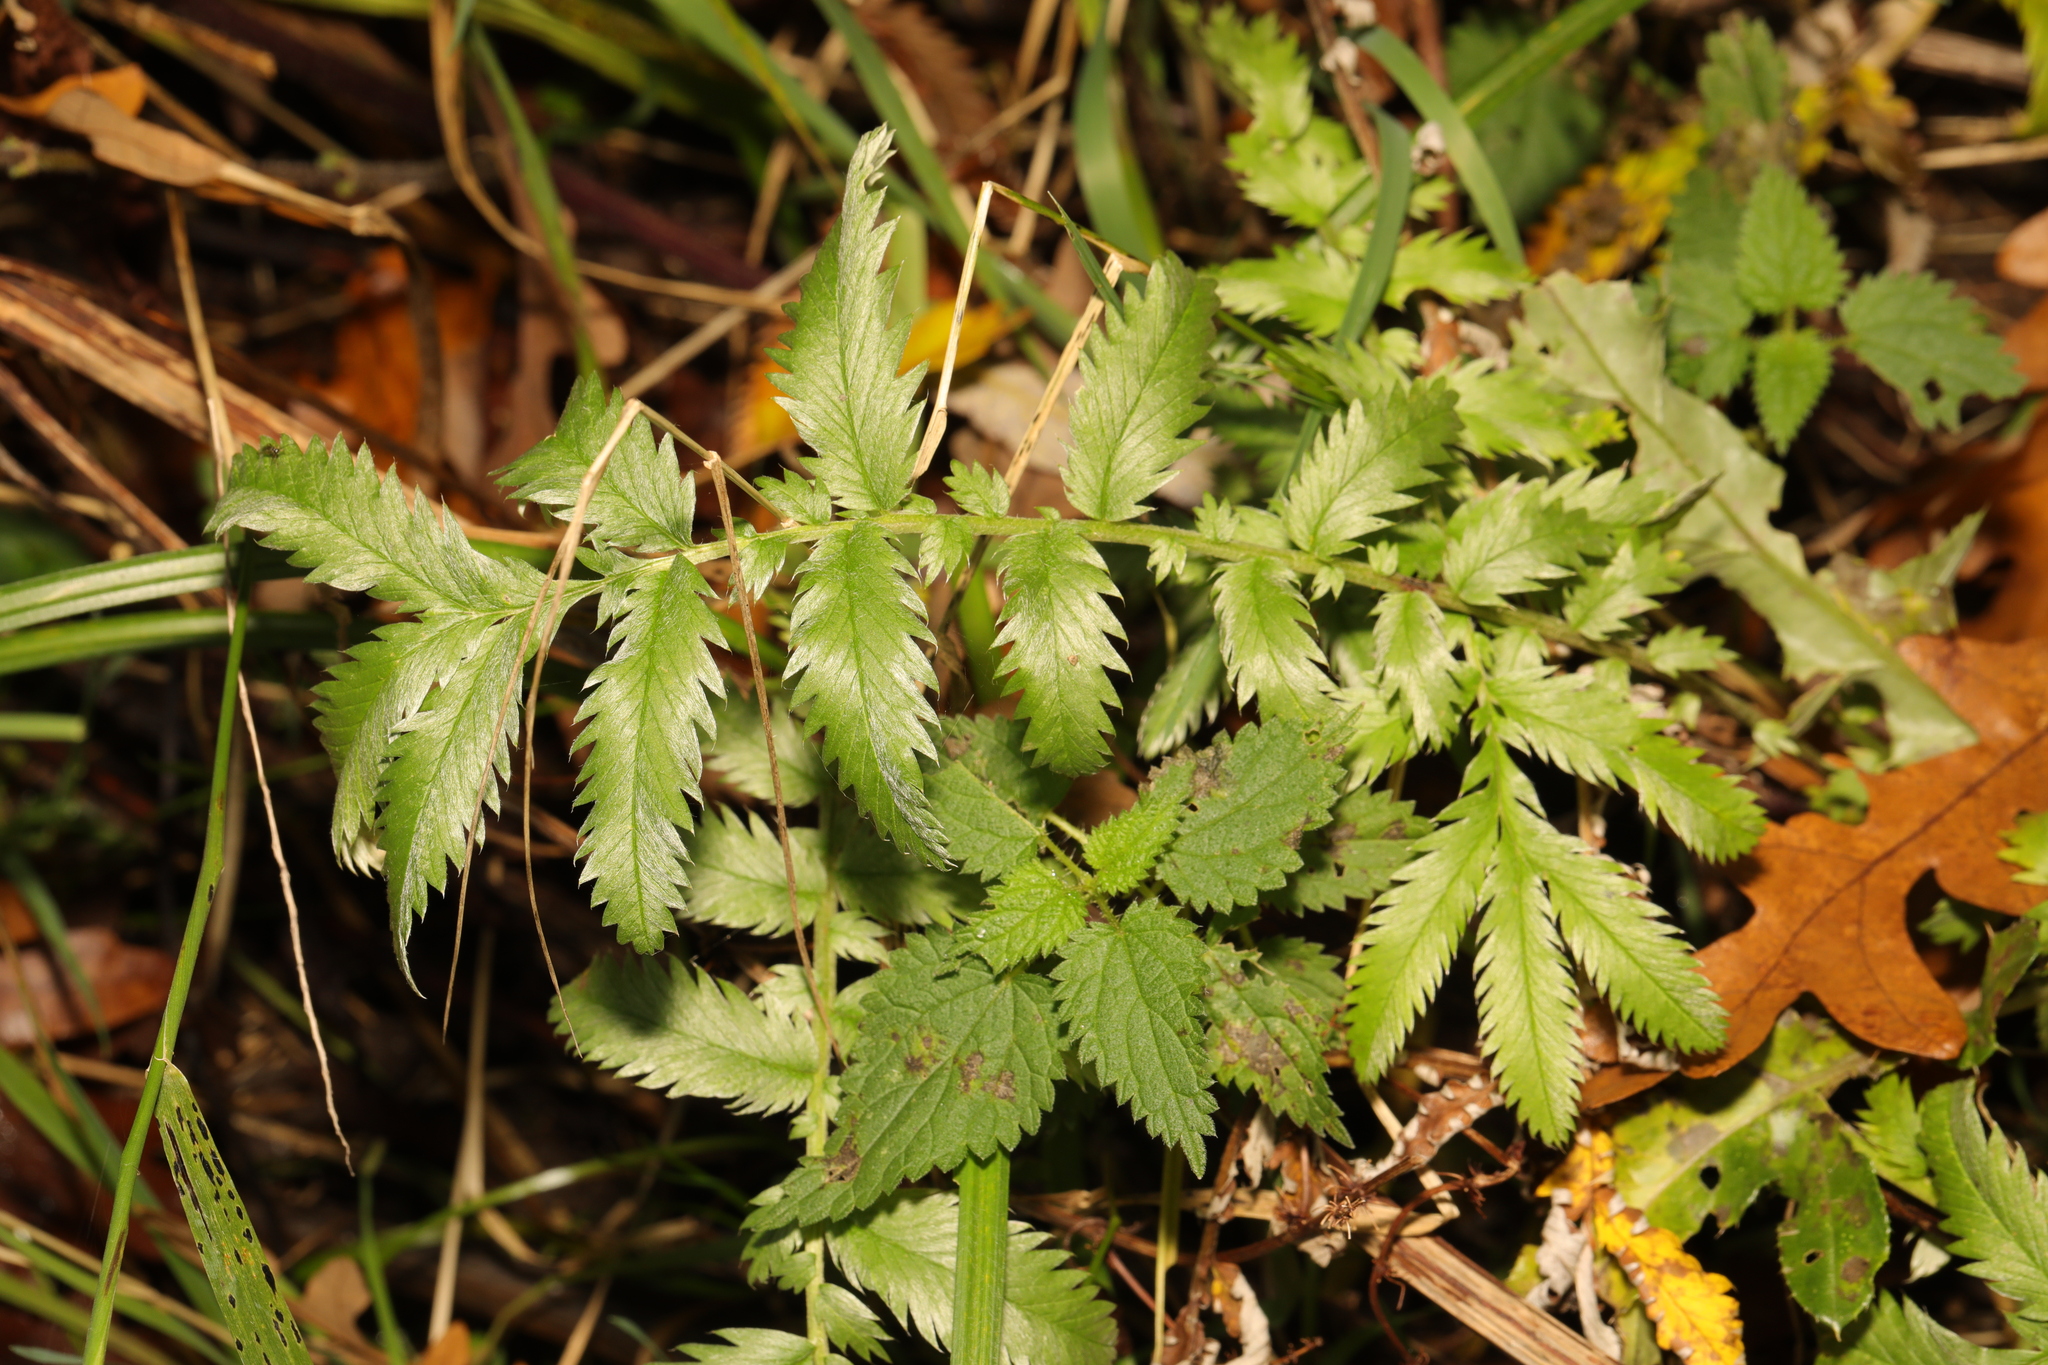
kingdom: Plantae
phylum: Tracheophyta
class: Magnoliopsida
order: Rosales
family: Rosaceae
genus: Argentina
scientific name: Argentina anserina
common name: Common silverweed
